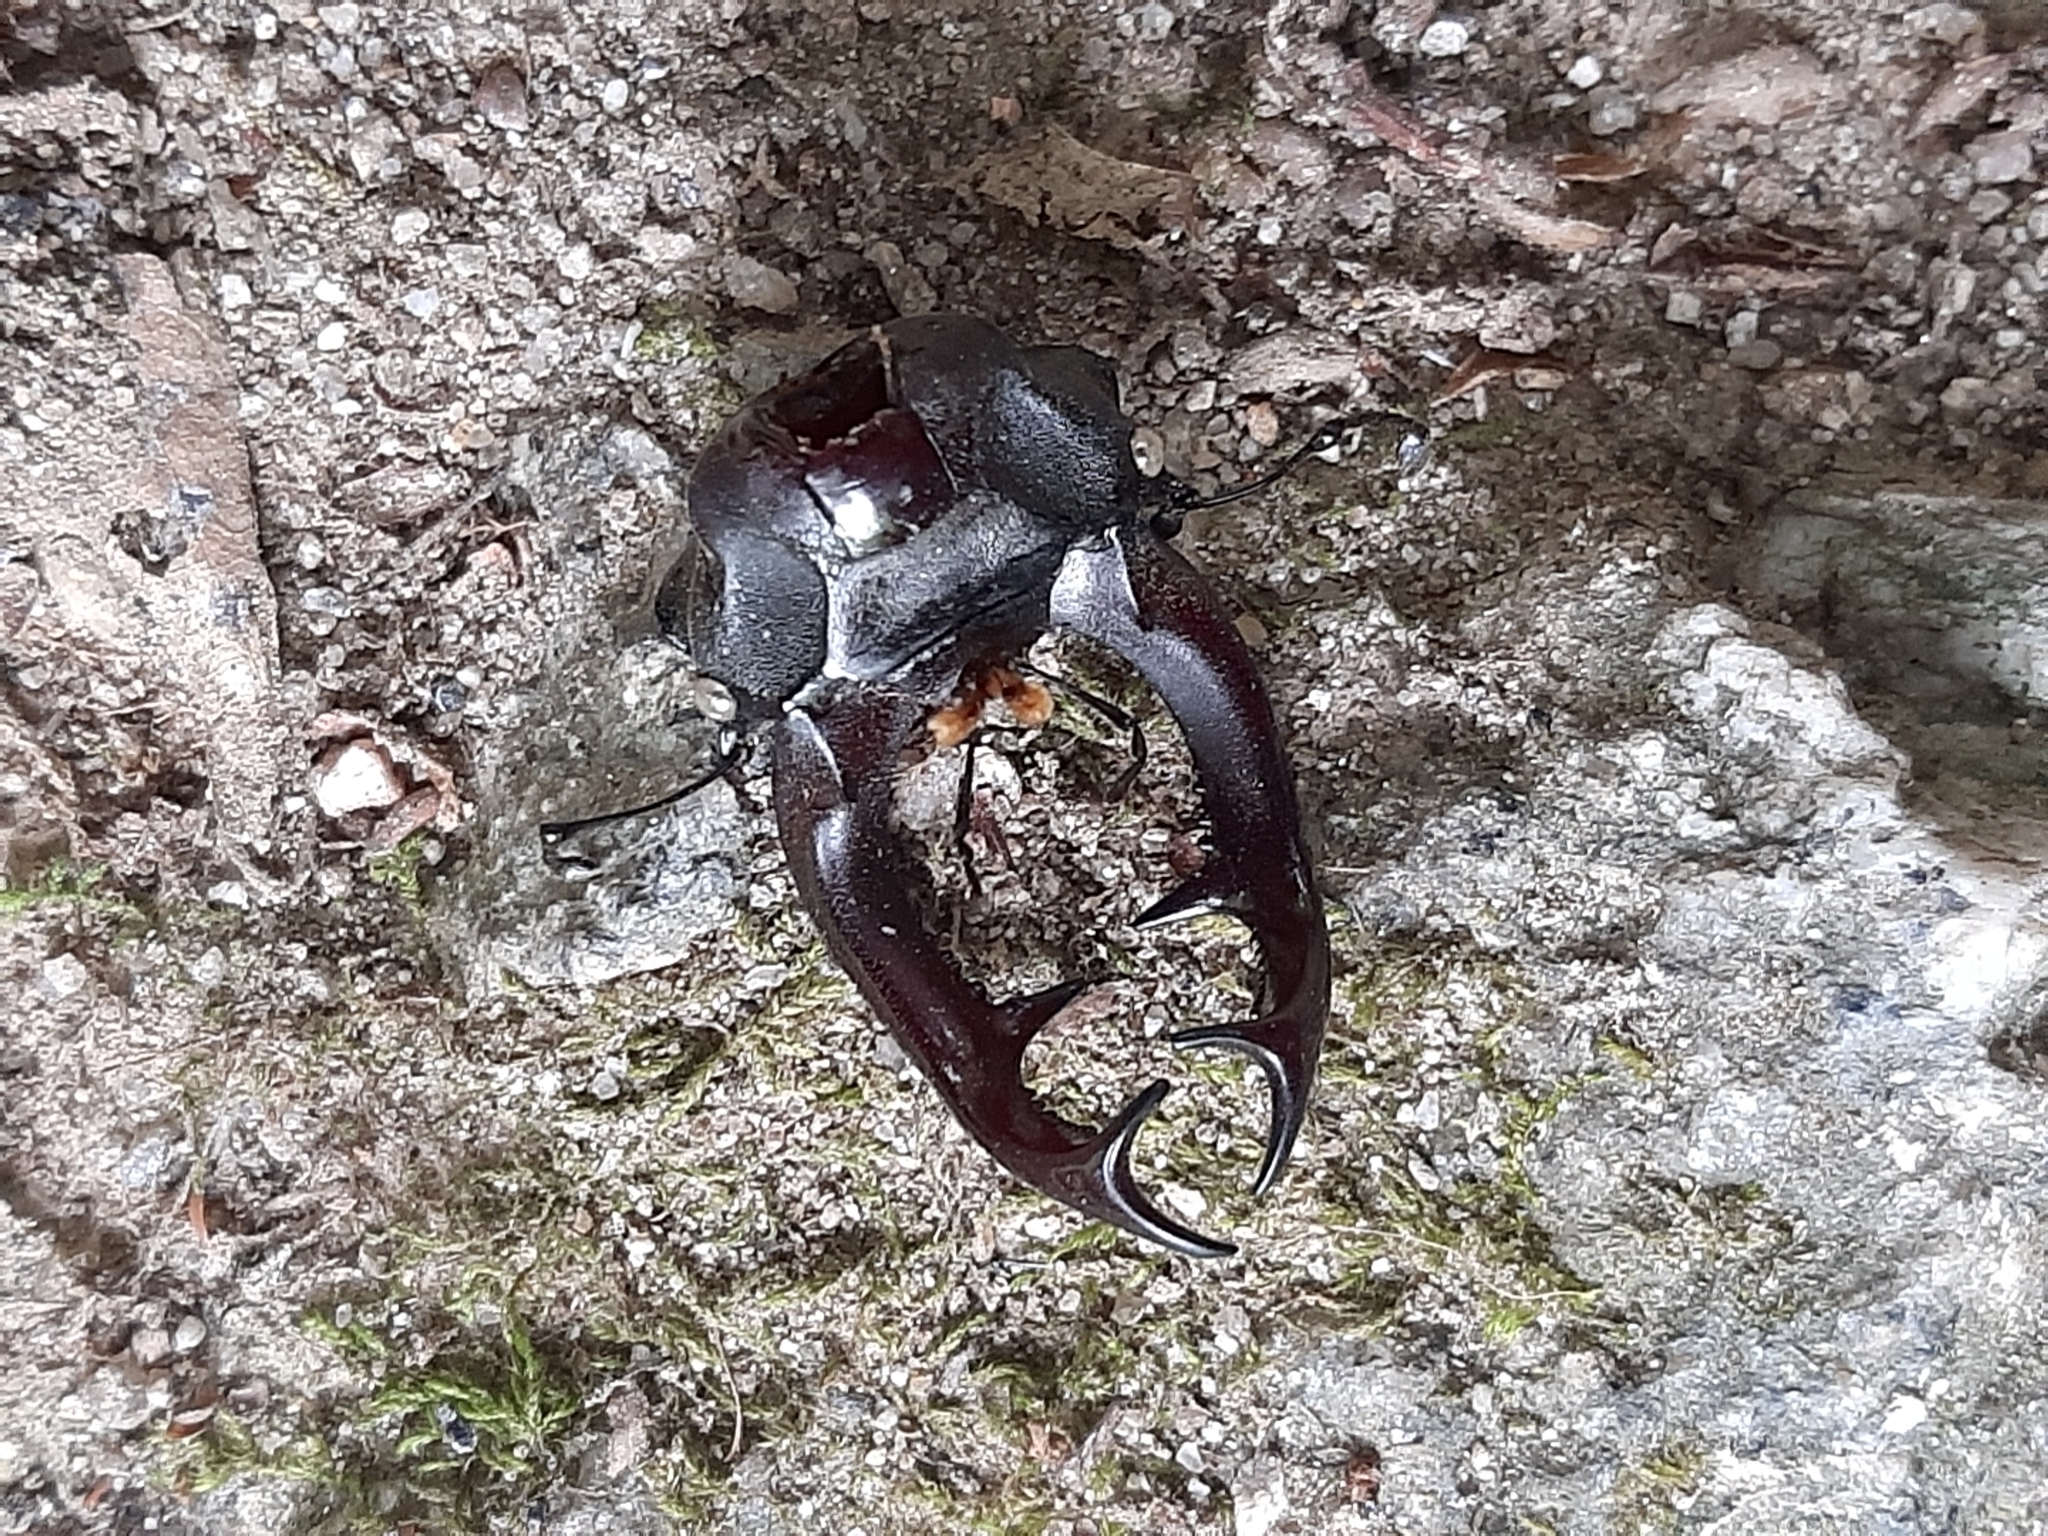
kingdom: Animalia
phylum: Arthropoda
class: Insecta
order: Coleoptera
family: Lucanidae
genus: Lucanus
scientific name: Lucanus cervus
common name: Stag beetle
